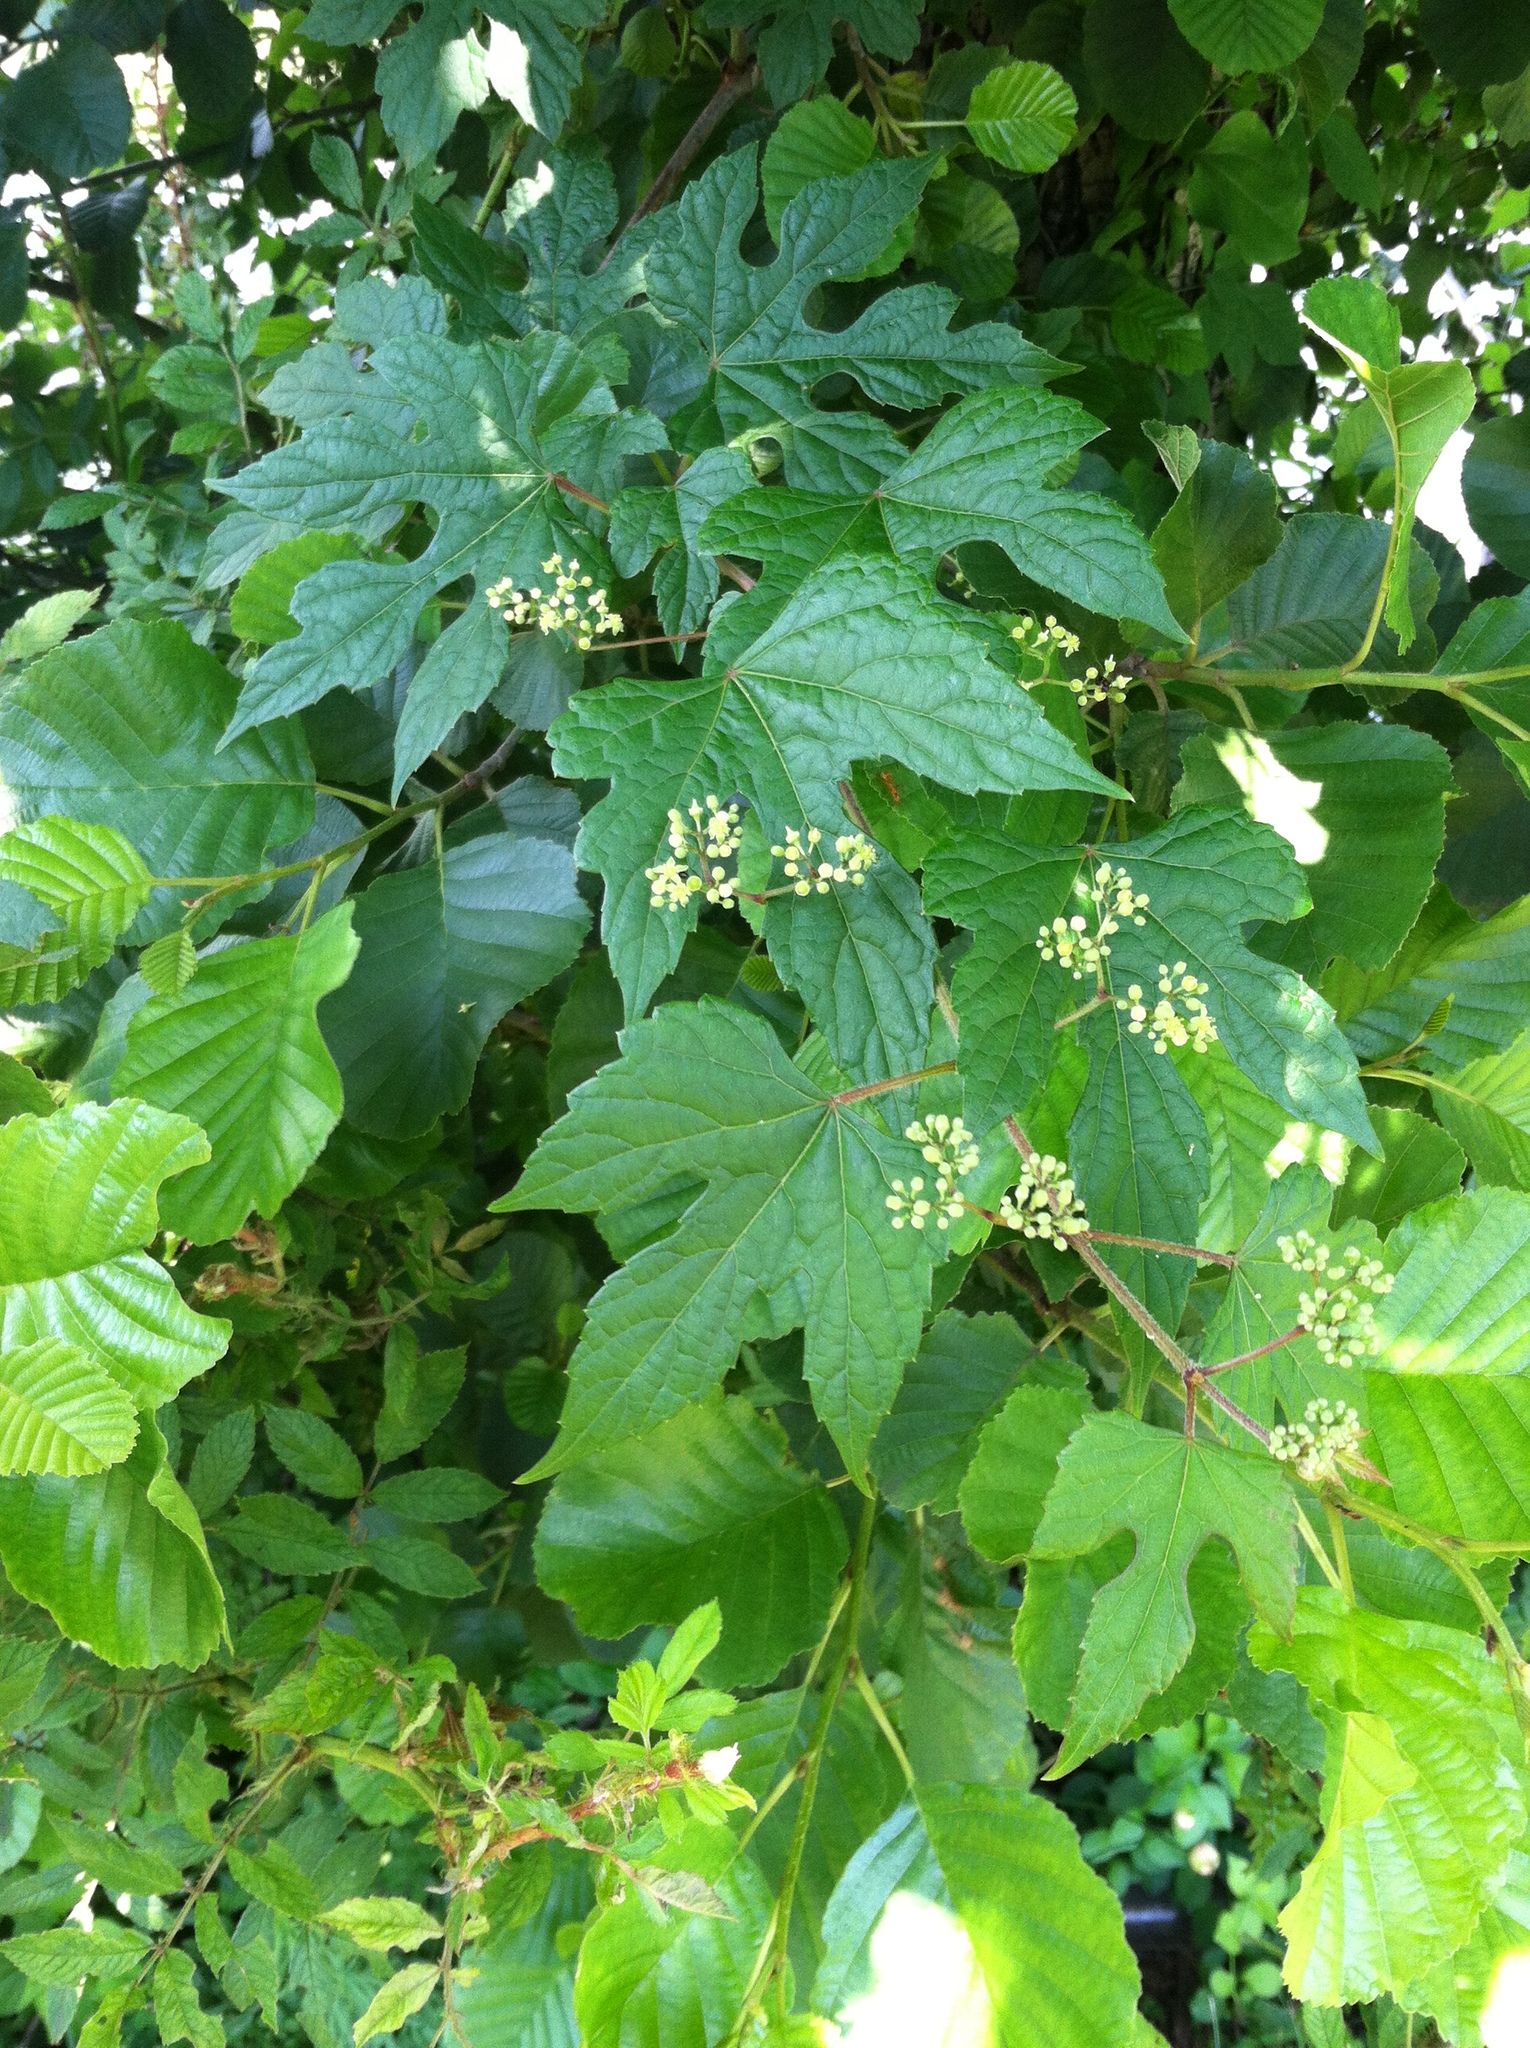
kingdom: Plantae
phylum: Tracheophyta
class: Magnoliopsida
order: Vitales
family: Vitaceae
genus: Ampelopsis
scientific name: Ampelopsis glandulosa
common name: Amur peppervine
